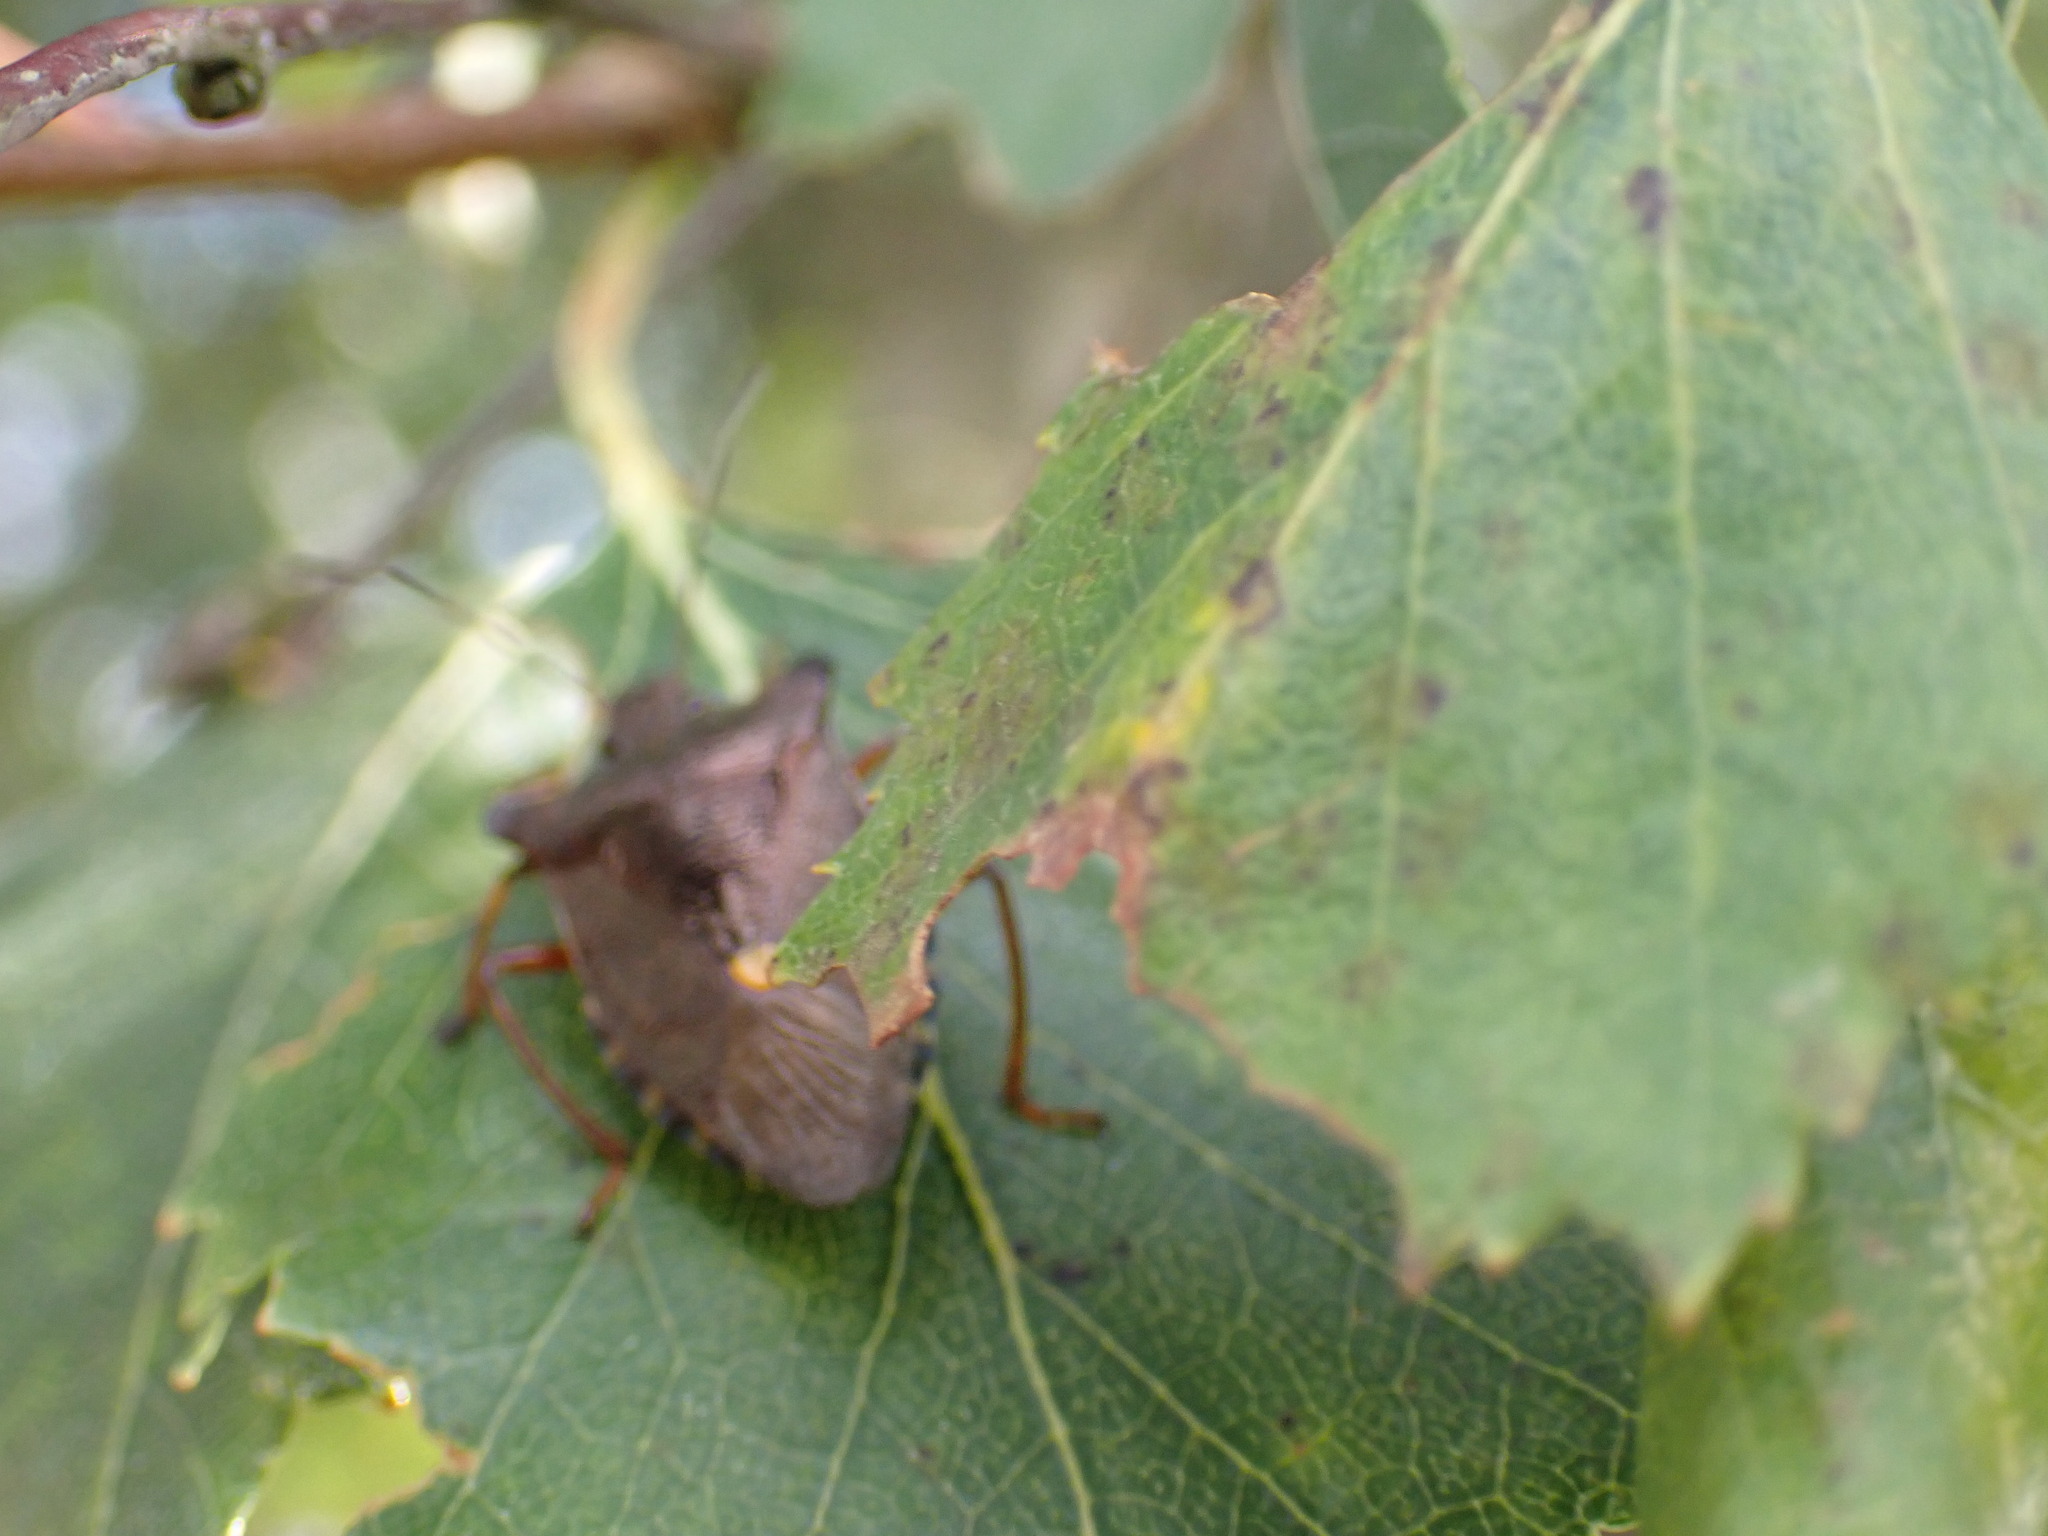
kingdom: Animalia
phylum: Arthropoda
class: Insecta
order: Hemiptera
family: Pentatomidae
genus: Pentatoma
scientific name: Pentatoma rufipes
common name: Forest bug
